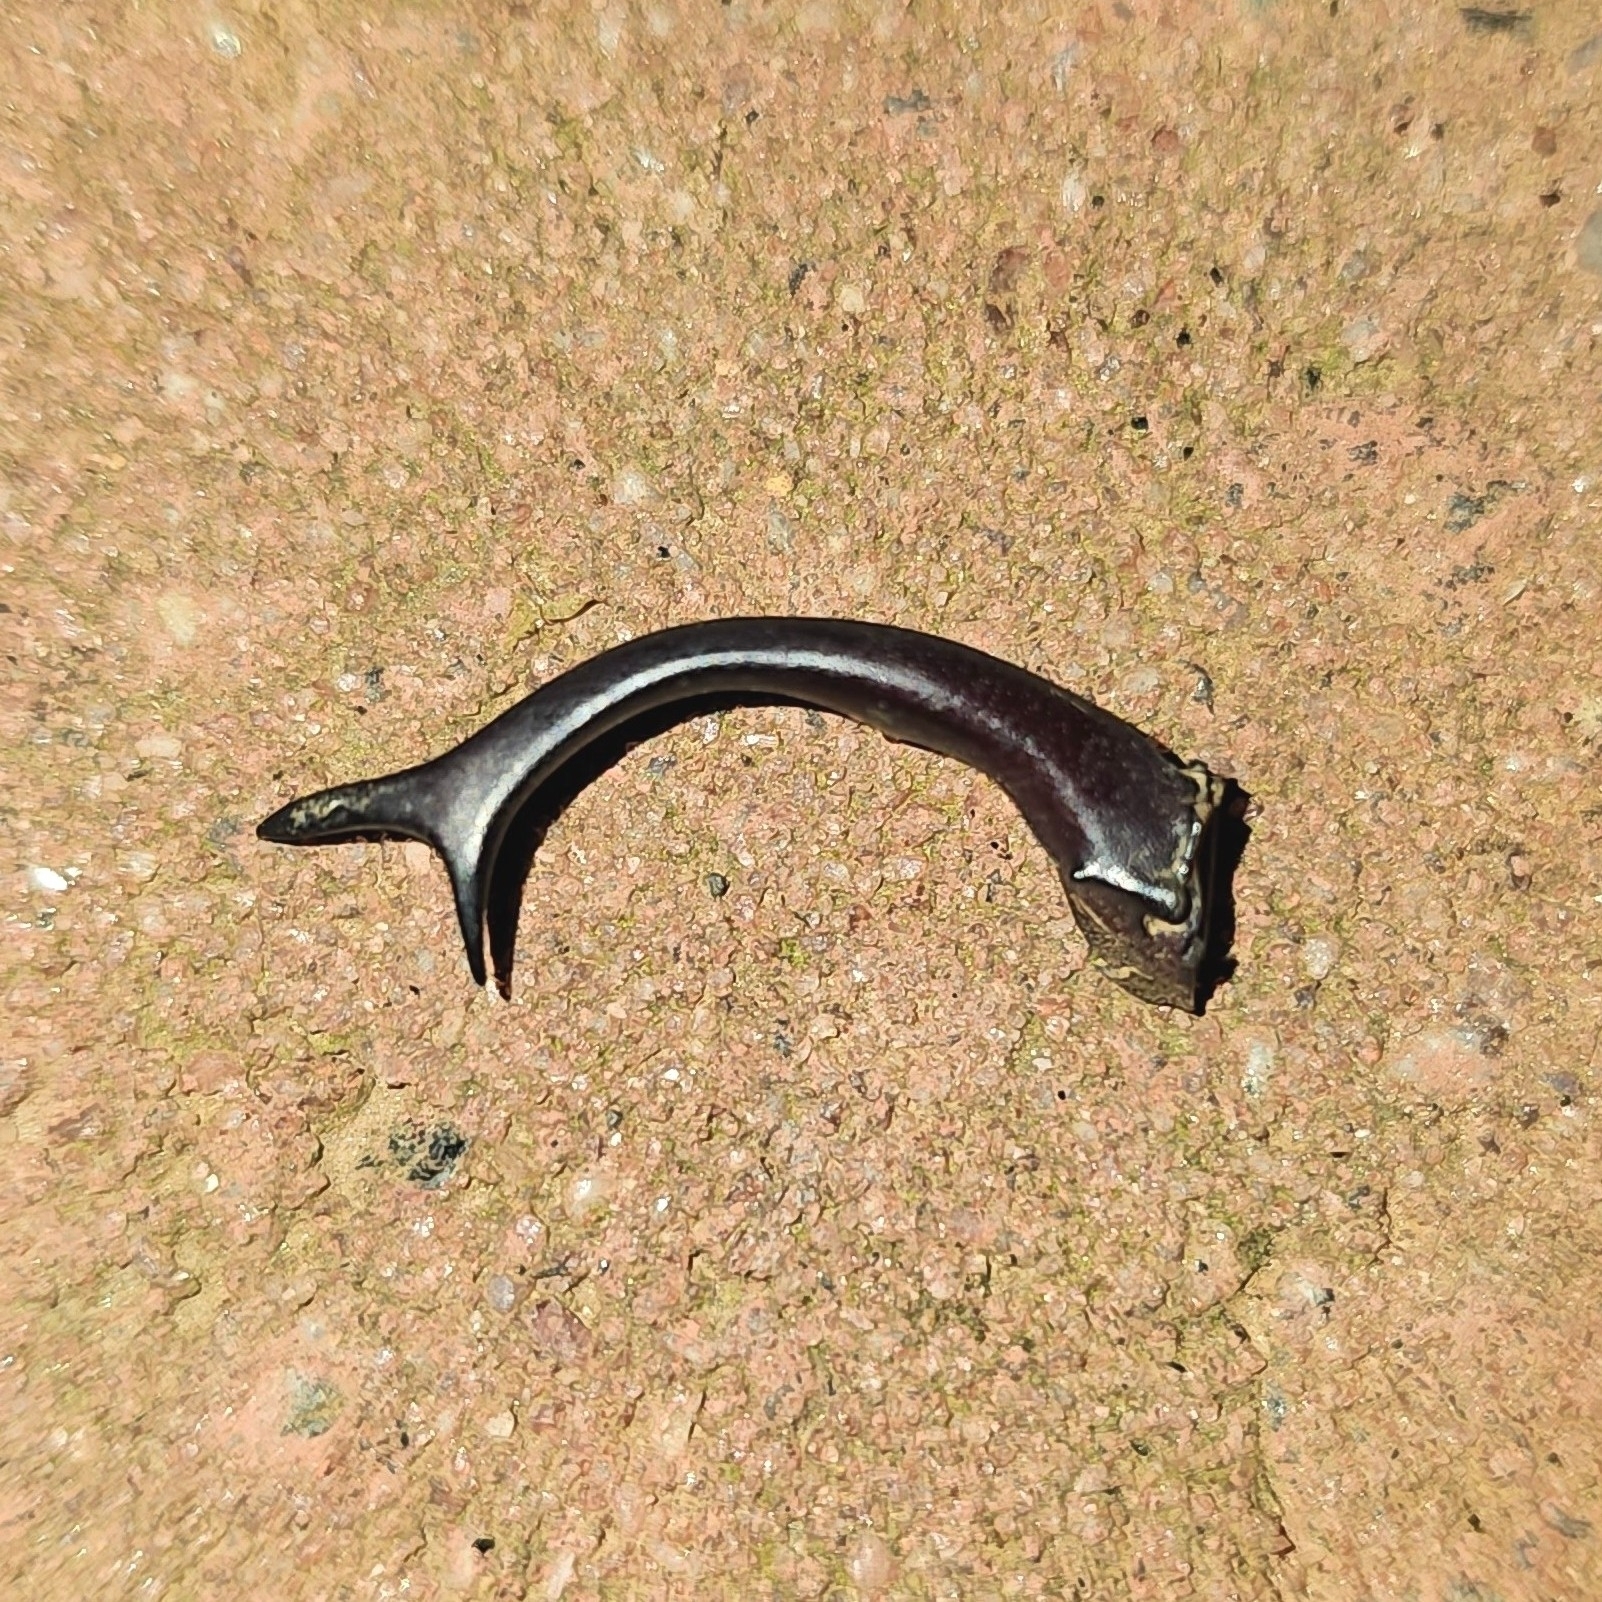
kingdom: Animalia
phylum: Arthropoda
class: Insecta
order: Coleoptera
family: Lucanidae
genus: Lucanus
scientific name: Lucanus elaphus
